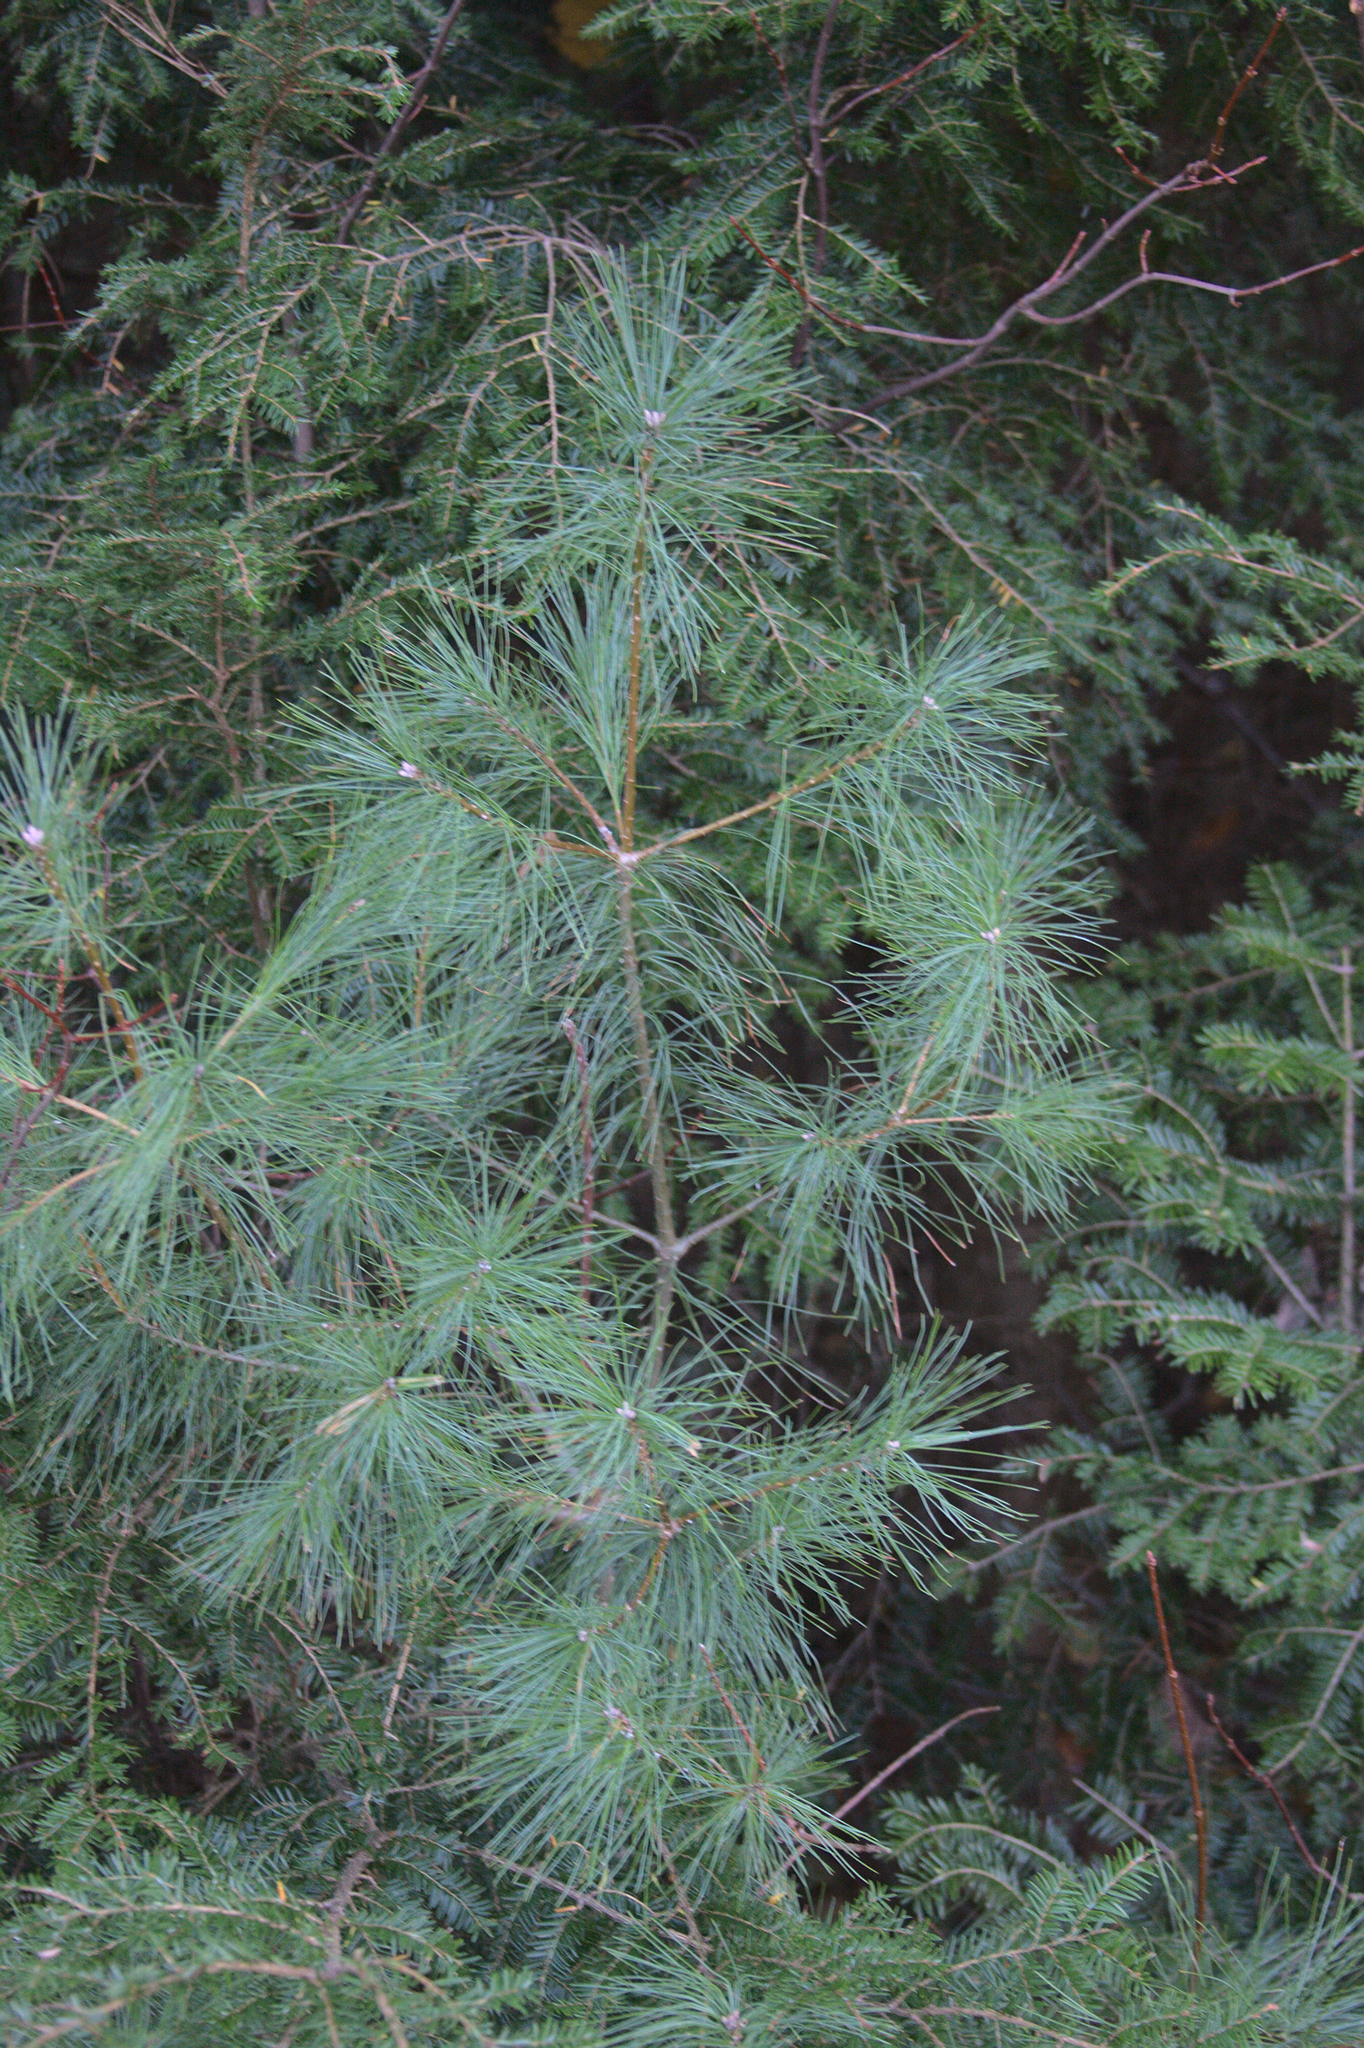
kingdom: Plantae
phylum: Tracheophyta
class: Pinopsida
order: Pinales
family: Pinaceae
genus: Pinus
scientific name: Pinus strobus
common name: Weymouth pine
